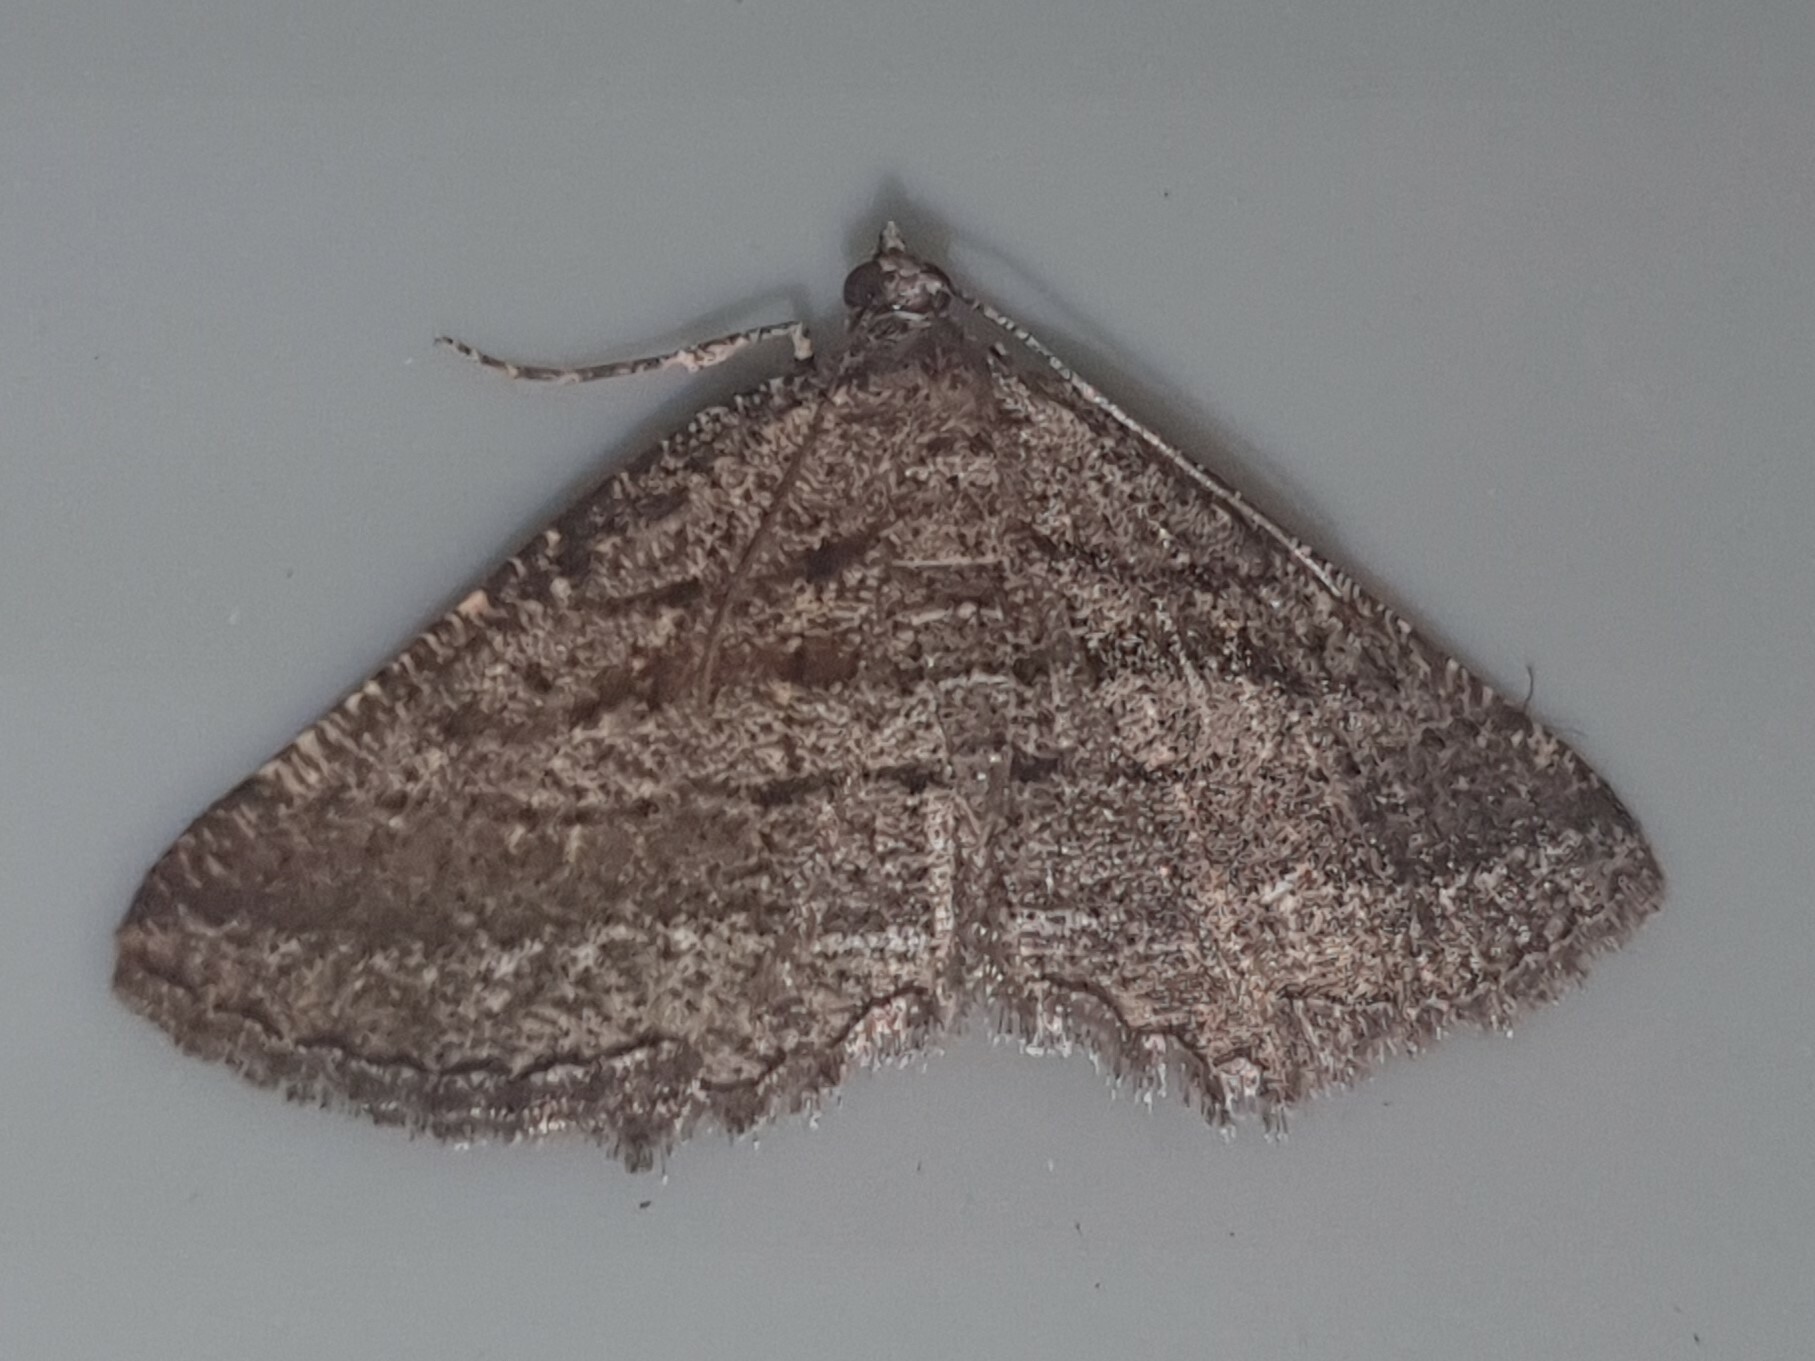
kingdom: Animalia
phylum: Arthropoda
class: Insecta
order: Lepidoptera
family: Geometridae
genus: Rhoptria
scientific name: Rhoptria asperaria
